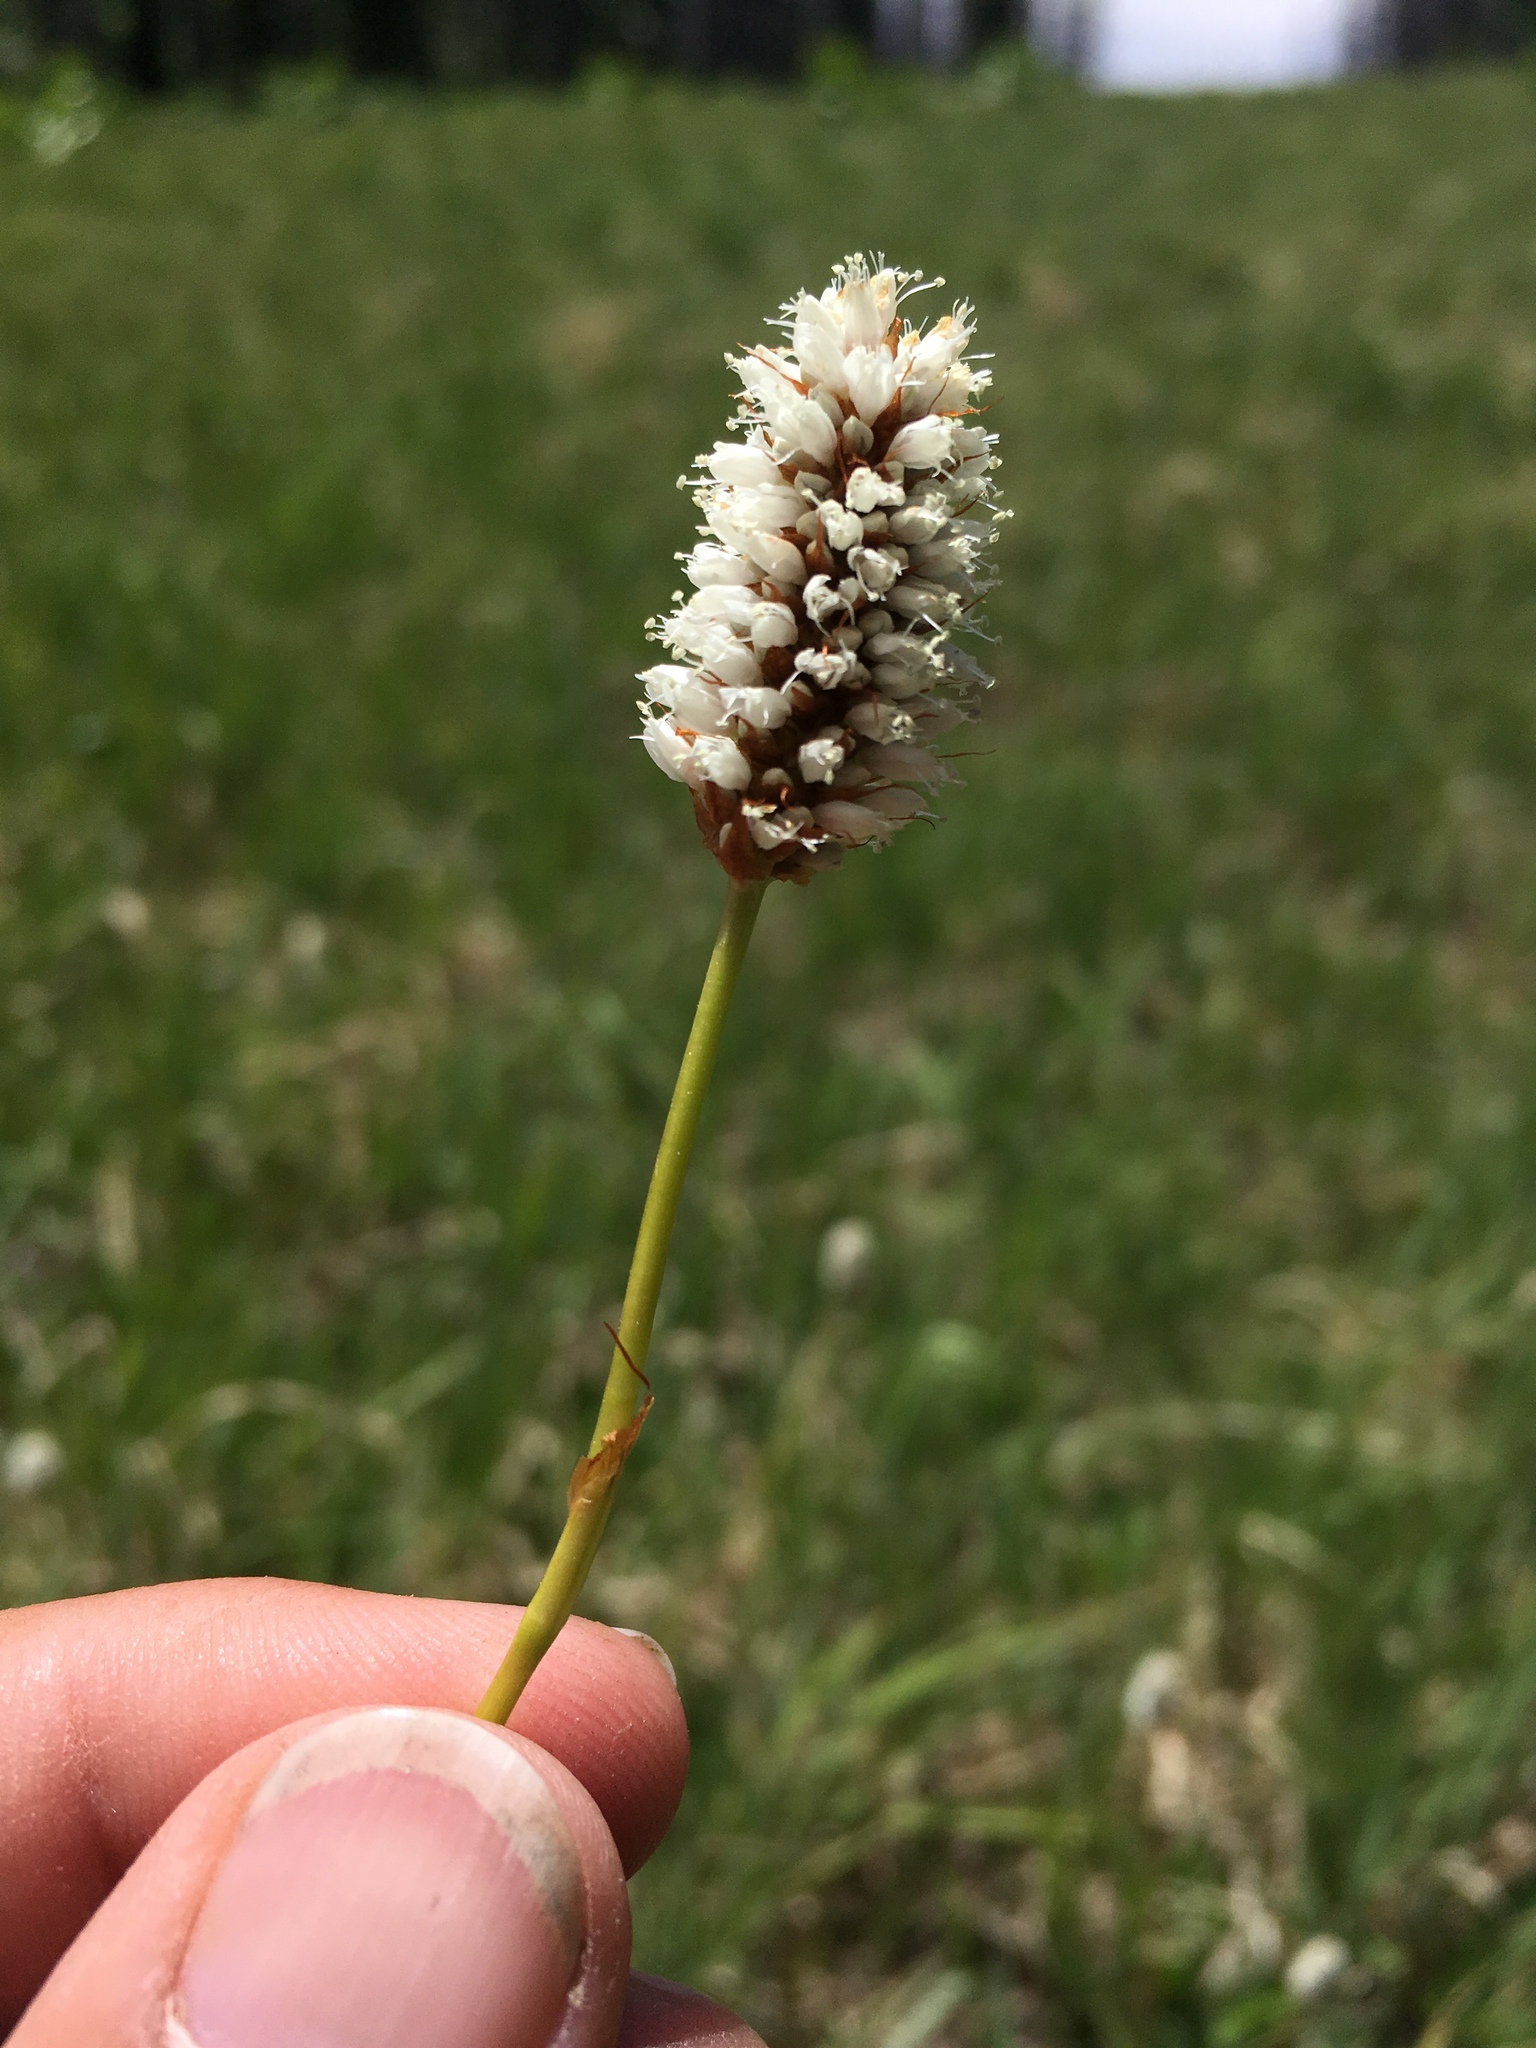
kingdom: Plantae
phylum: Tracheophyta
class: Magnoliopsida
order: Caryophyllales
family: Polygonaceae
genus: Bistorta
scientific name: Bistorta bistortoides
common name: American bistort
